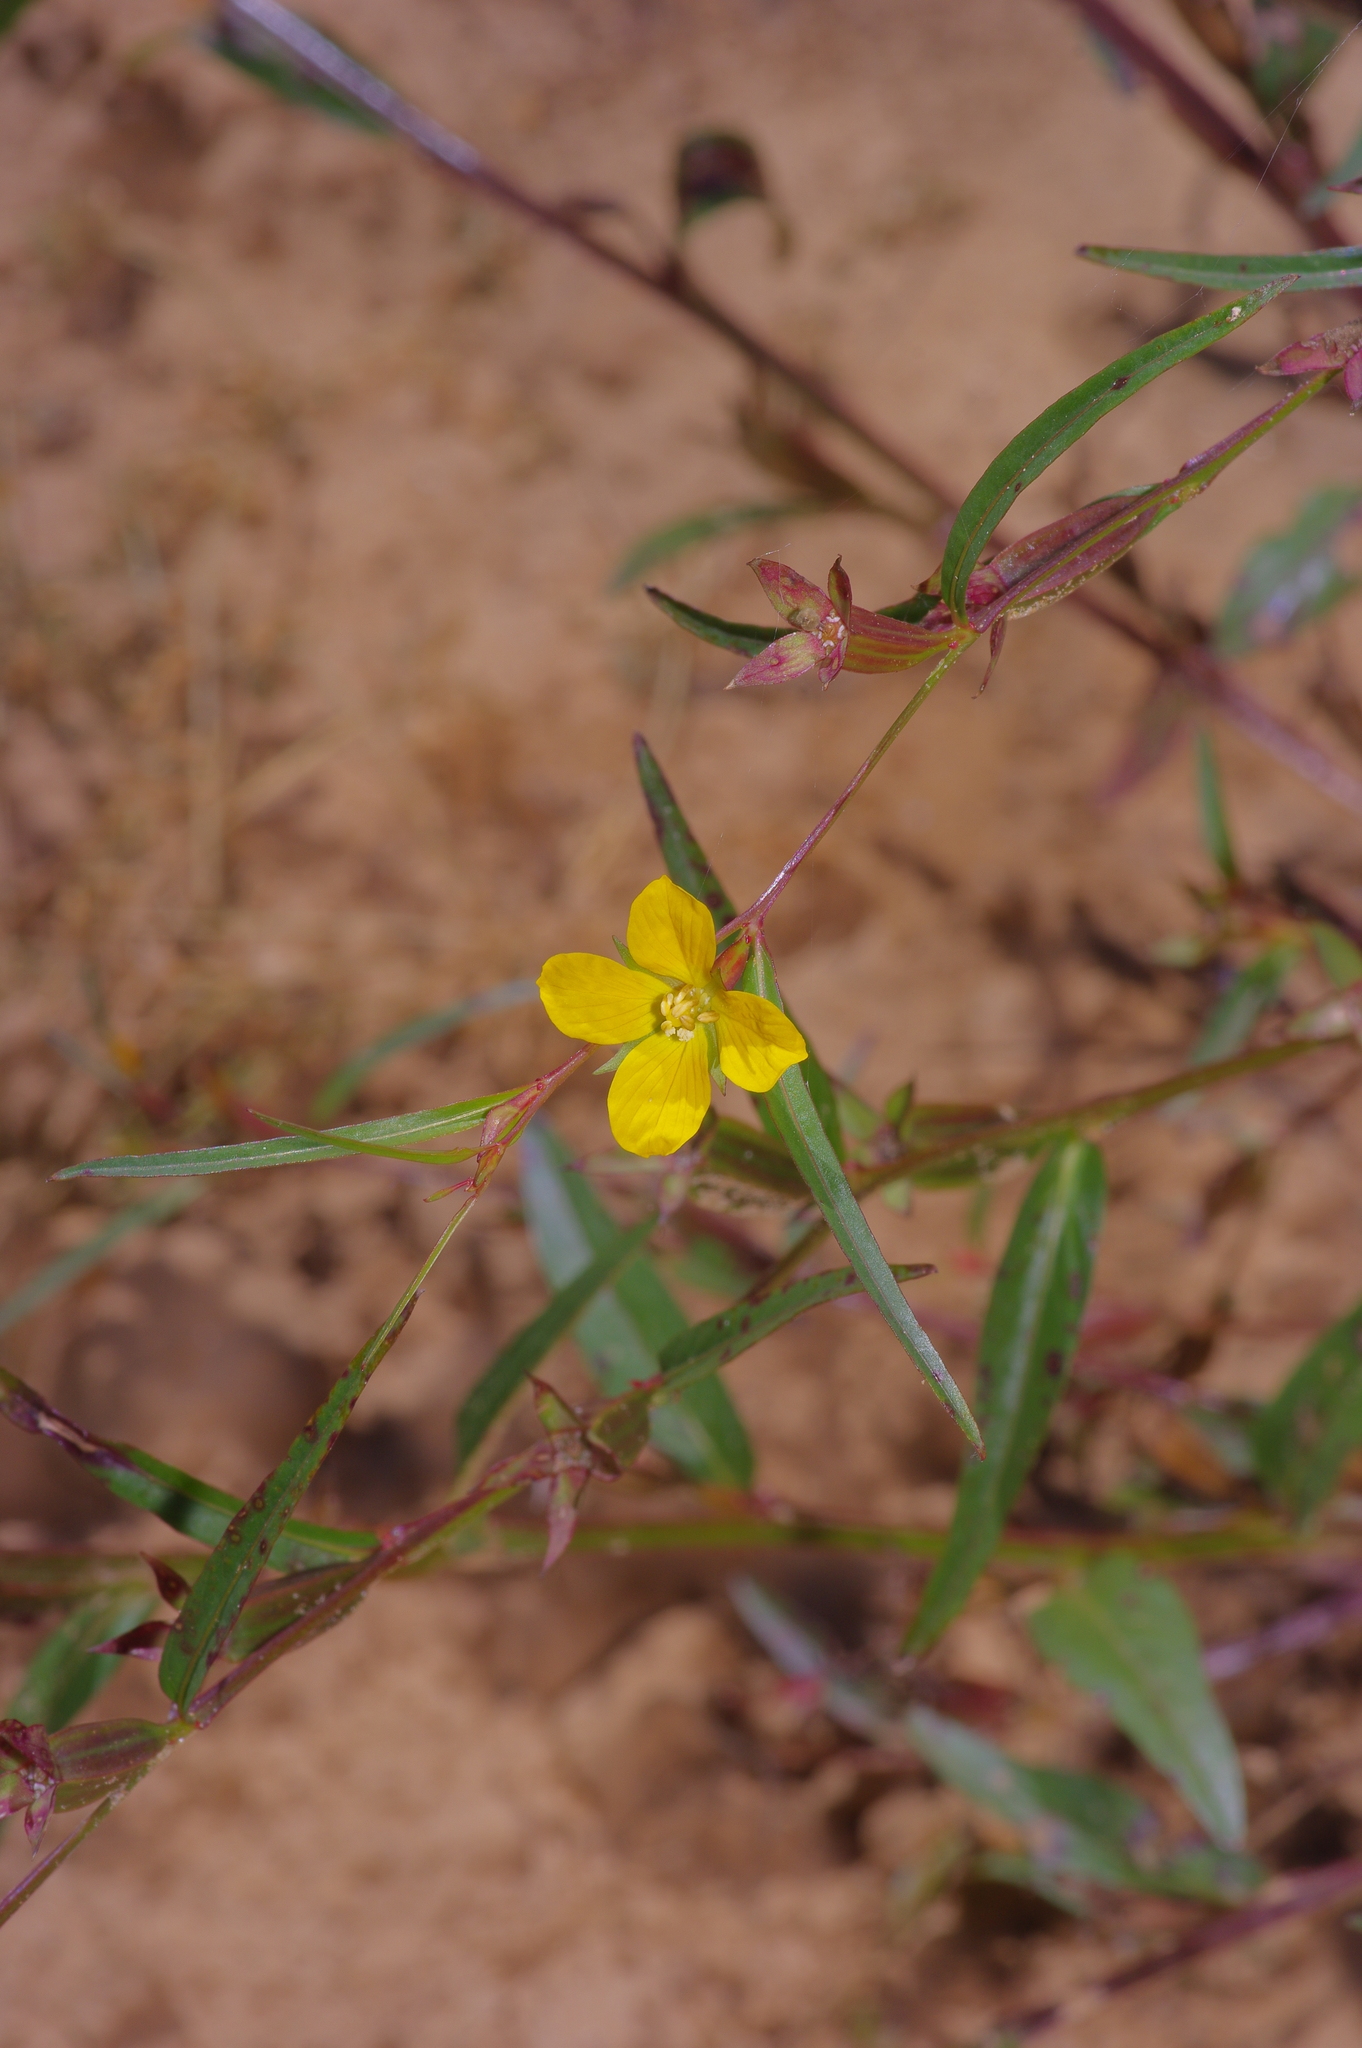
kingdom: Plantae
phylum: Tracheophyta
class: Magnoliopsida
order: Myrtales
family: Onagraceae
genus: Ludwigia
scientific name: Ludwigia decurrens
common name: Winged water-primrose
